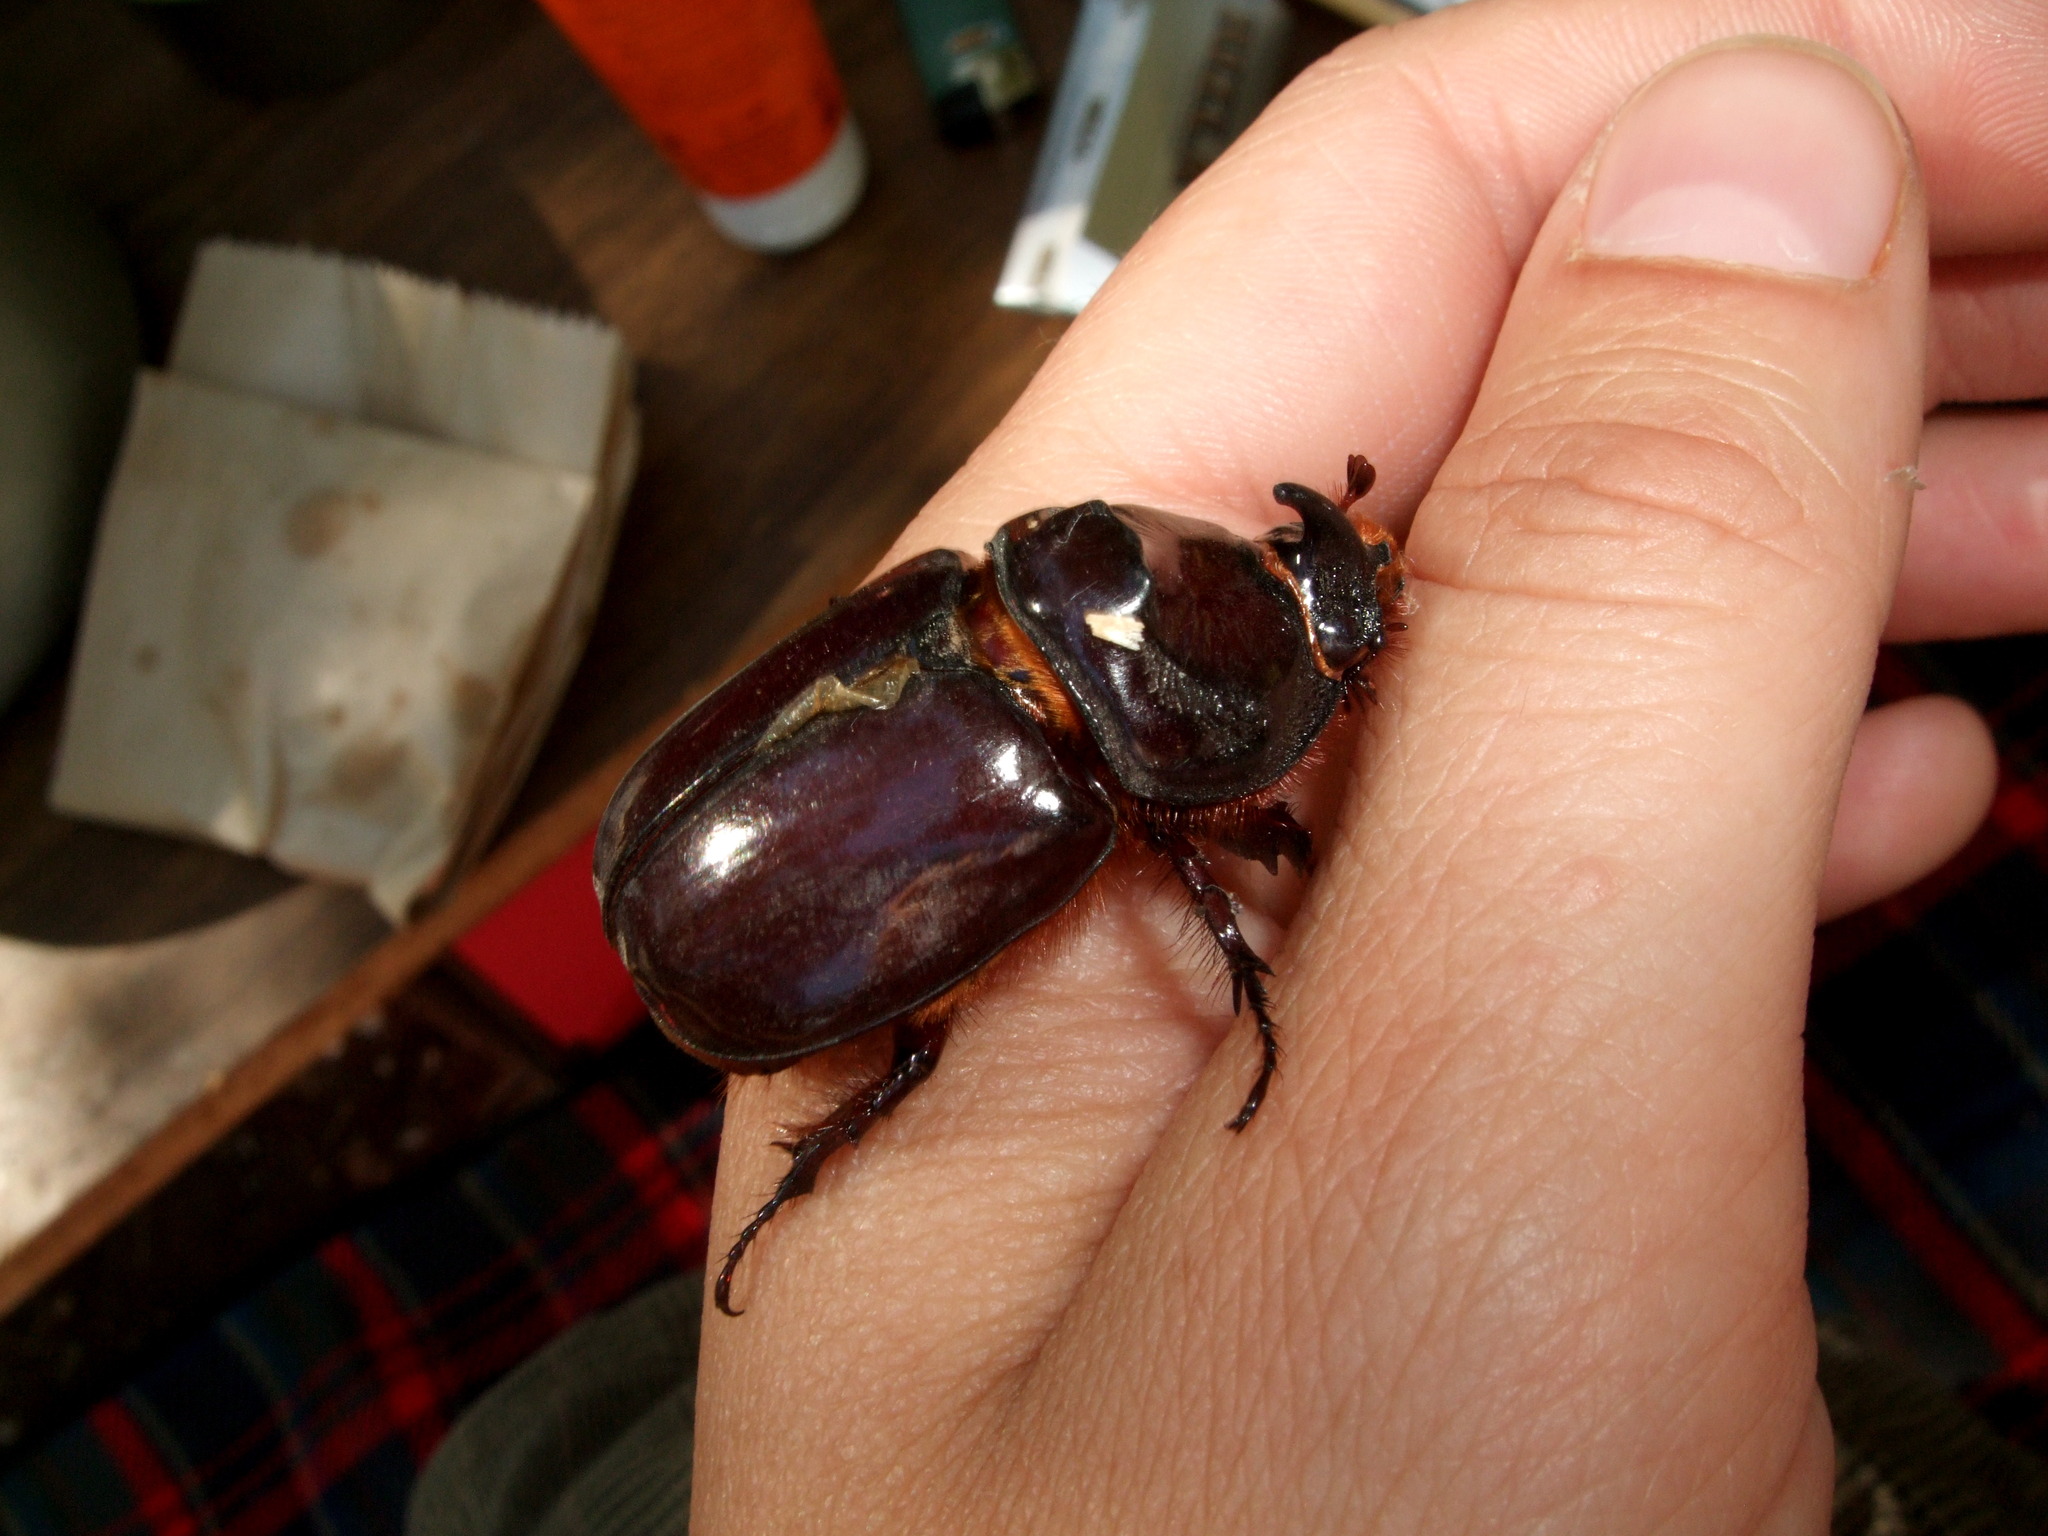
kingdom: Animalia
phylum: Arthropoda
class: Insecta
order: Coleoptera
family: Scarabaeidae
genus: Oryctes
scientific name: Oryctes nasicornis
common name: European rhinoceros beetle
